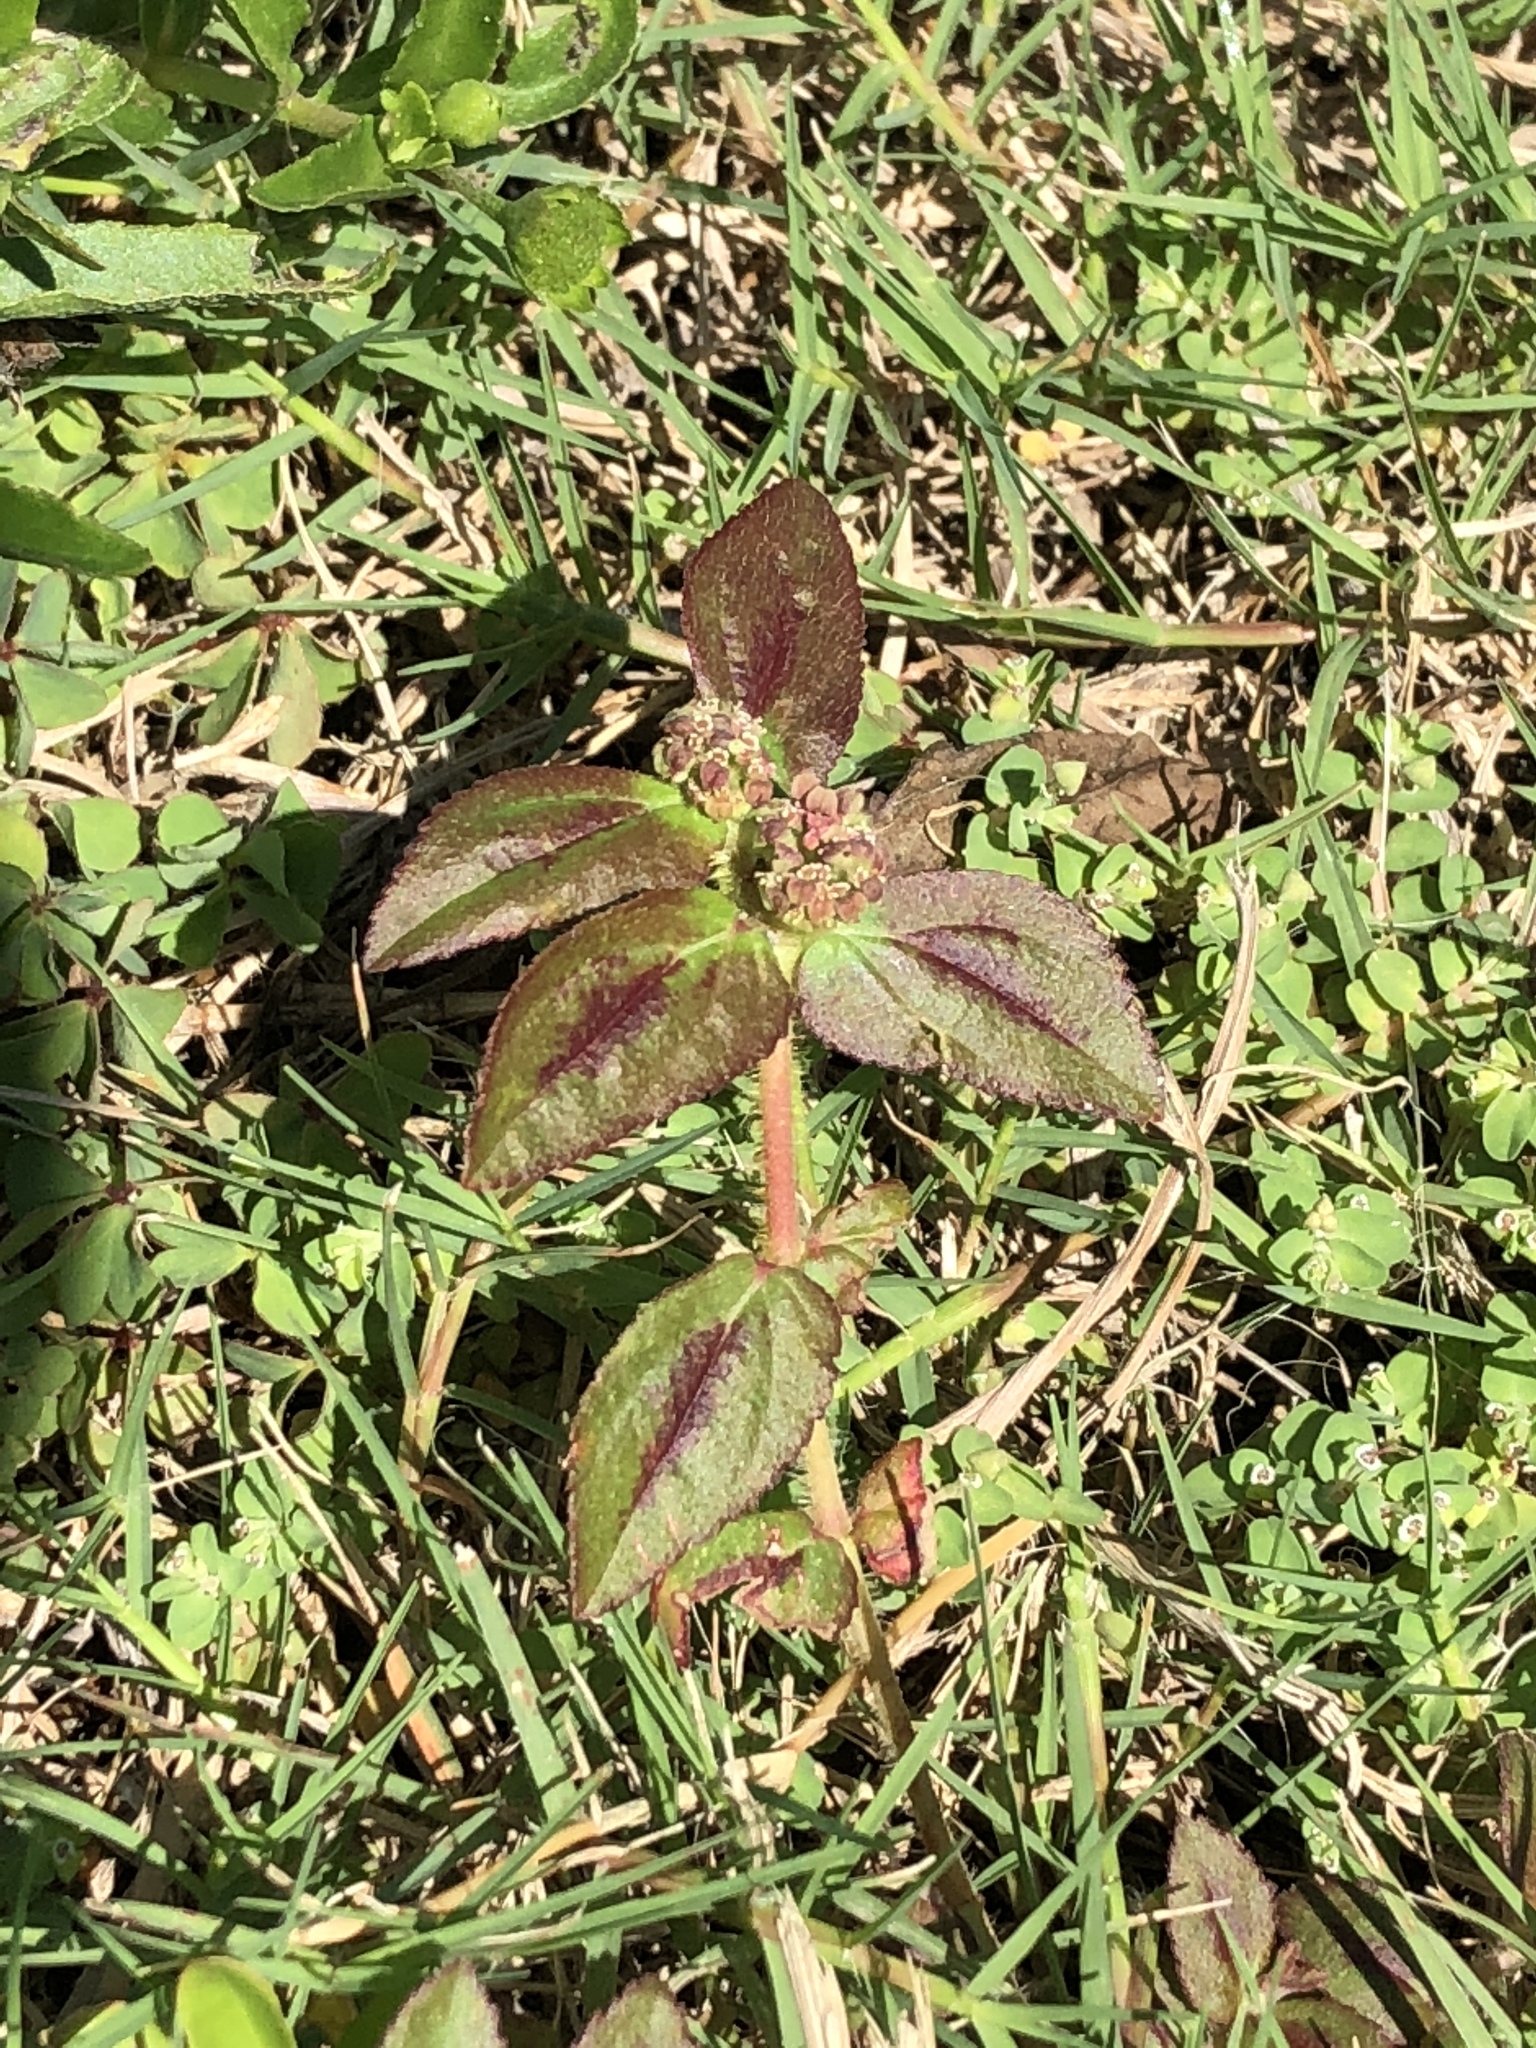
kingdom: Plantae
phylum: Tracheophyta
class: Magnoliopsida
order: Malpighiales
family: Euphorbiaceae
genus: Euphorbia
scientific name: Euphorbia hirta
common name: Pillpod sandmat
